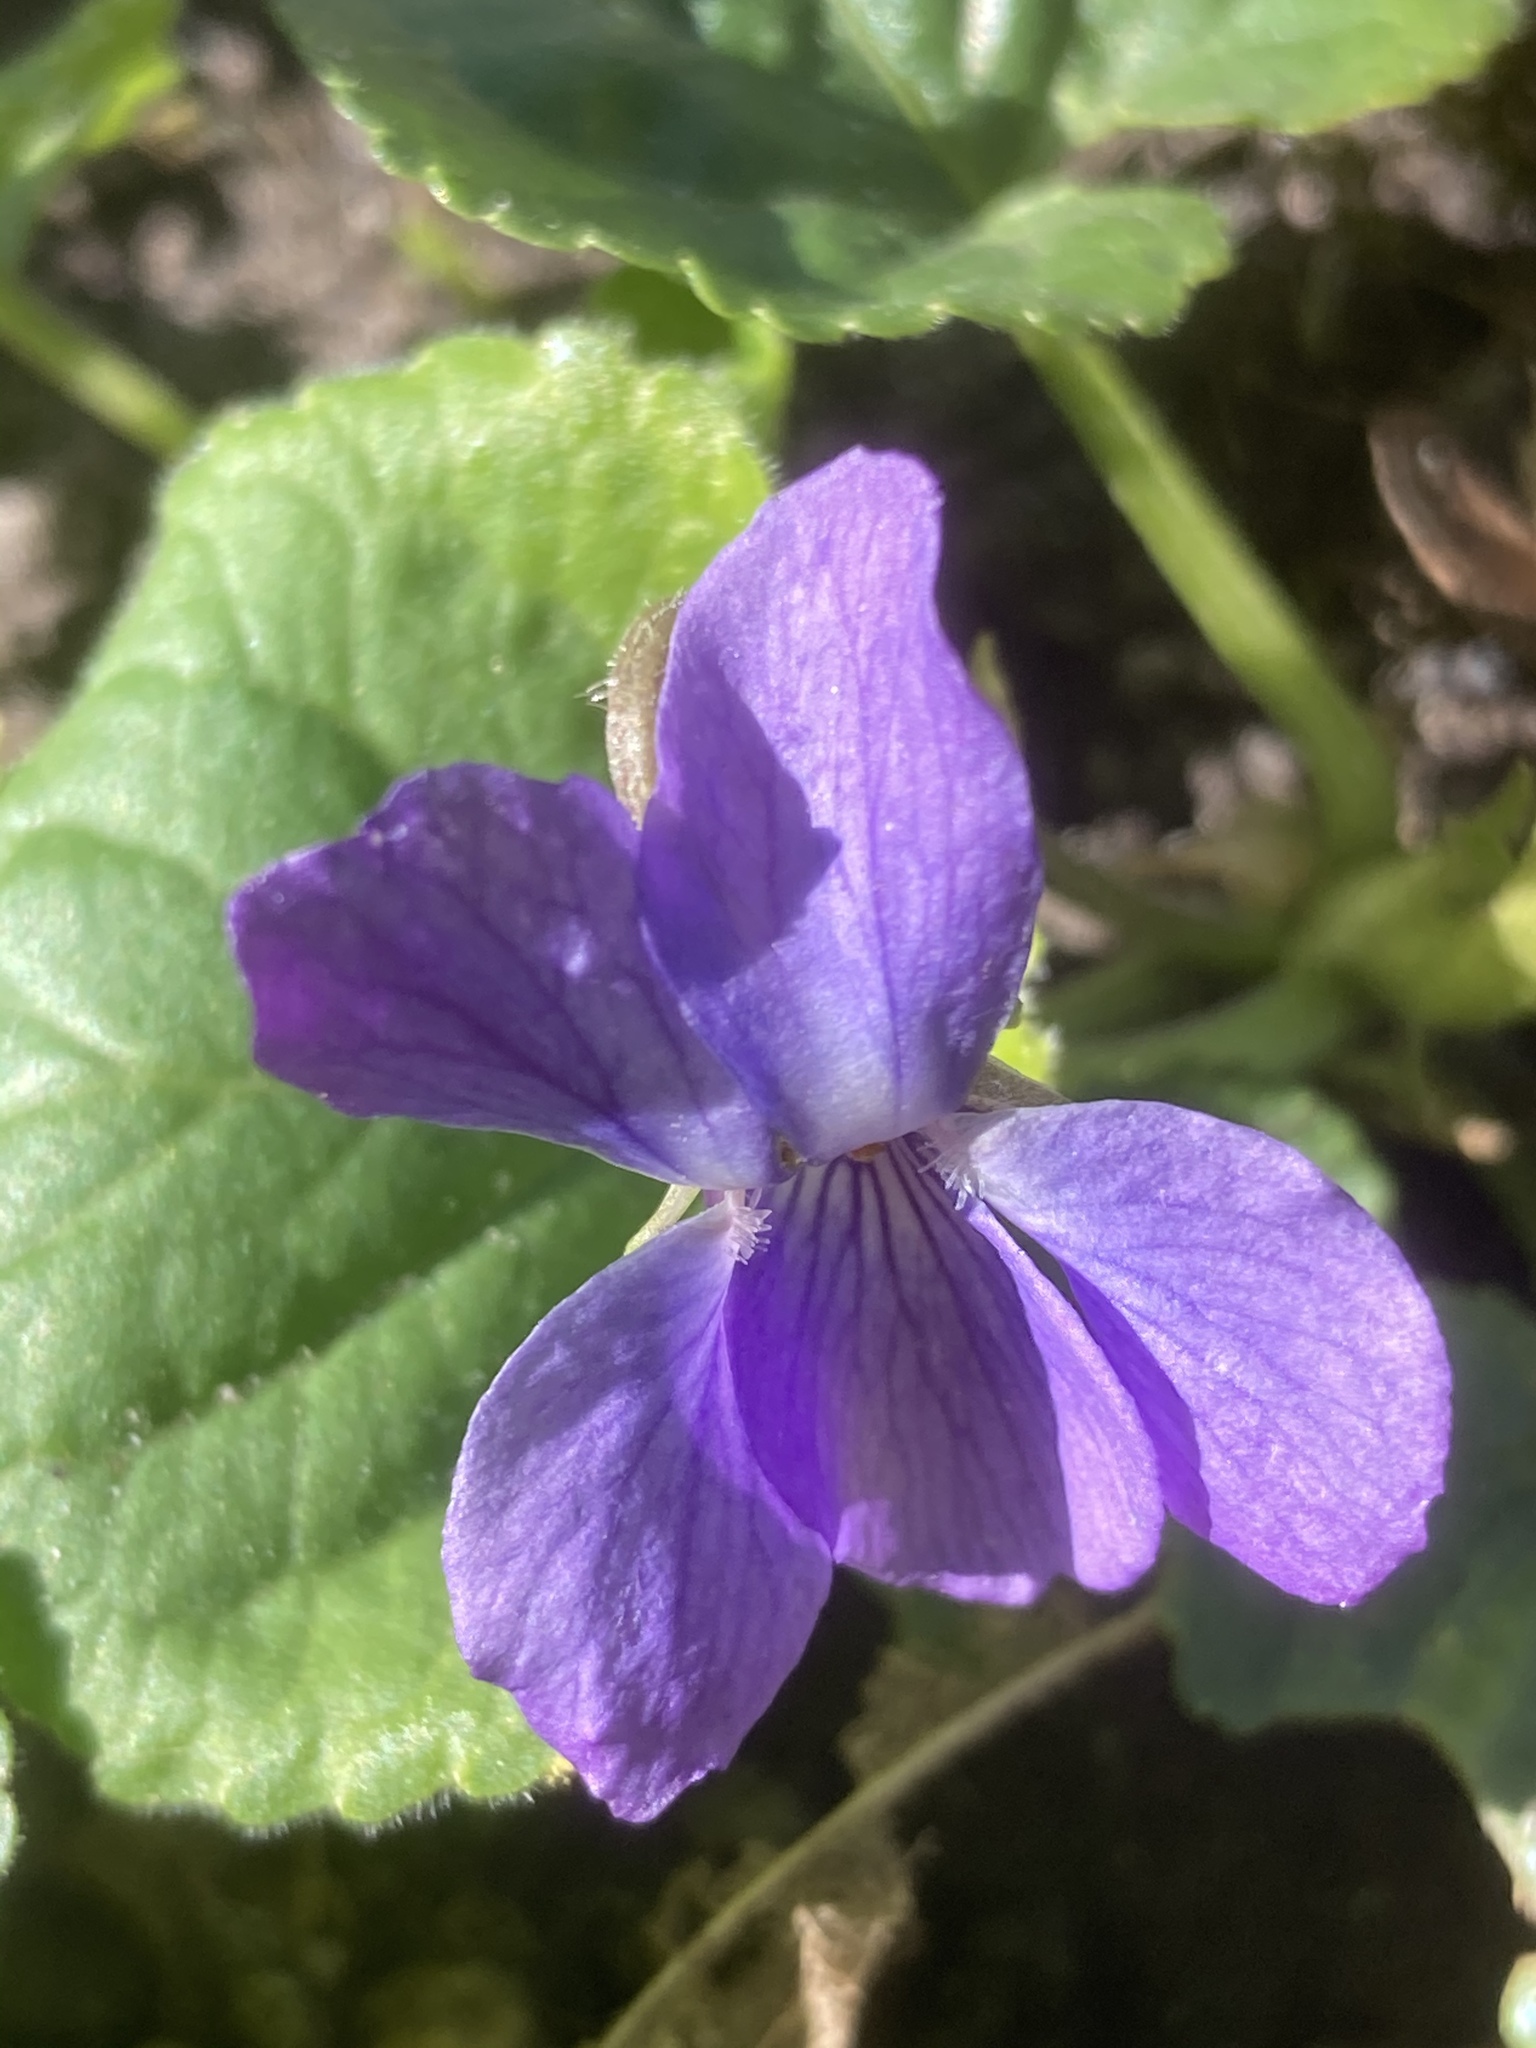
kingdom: Plantae
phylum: Tracheophyta
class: Magnoliopsida
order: Malpighiales
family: Violaceae
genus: Viola
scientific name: Viola odorata
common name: Sweet violet
